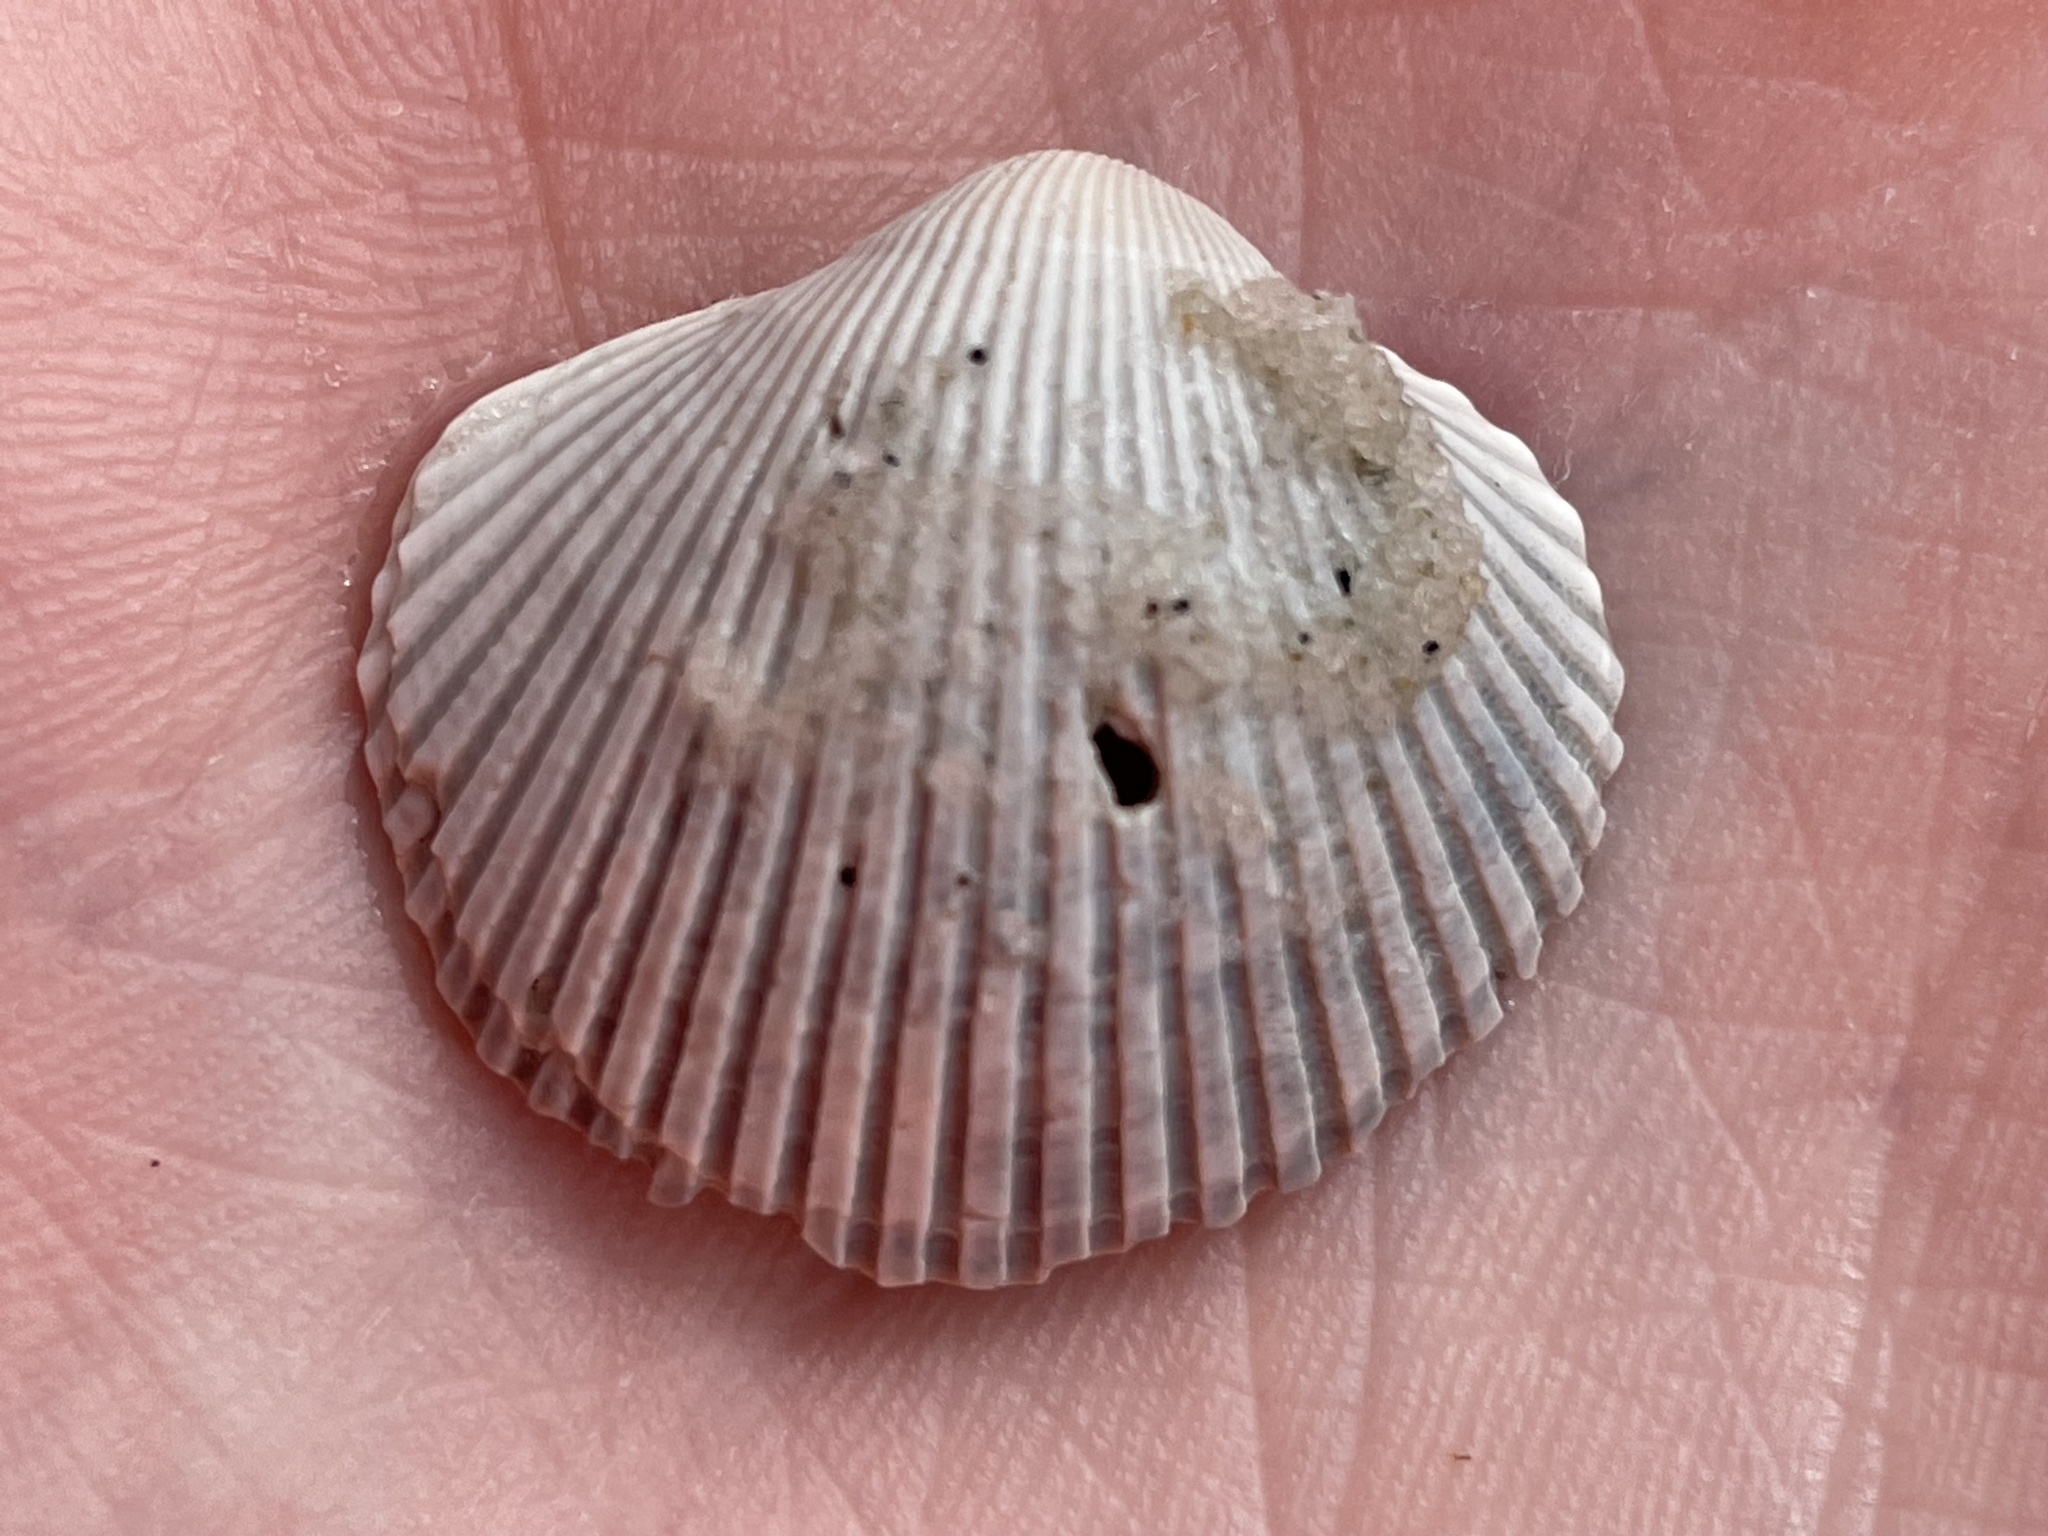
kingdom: Animalia
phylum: Mollusca
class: Bivalvia
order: Arcida
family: Arcidae
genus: Lunarca
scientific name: Lunarca ovalis
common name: Blood ark
